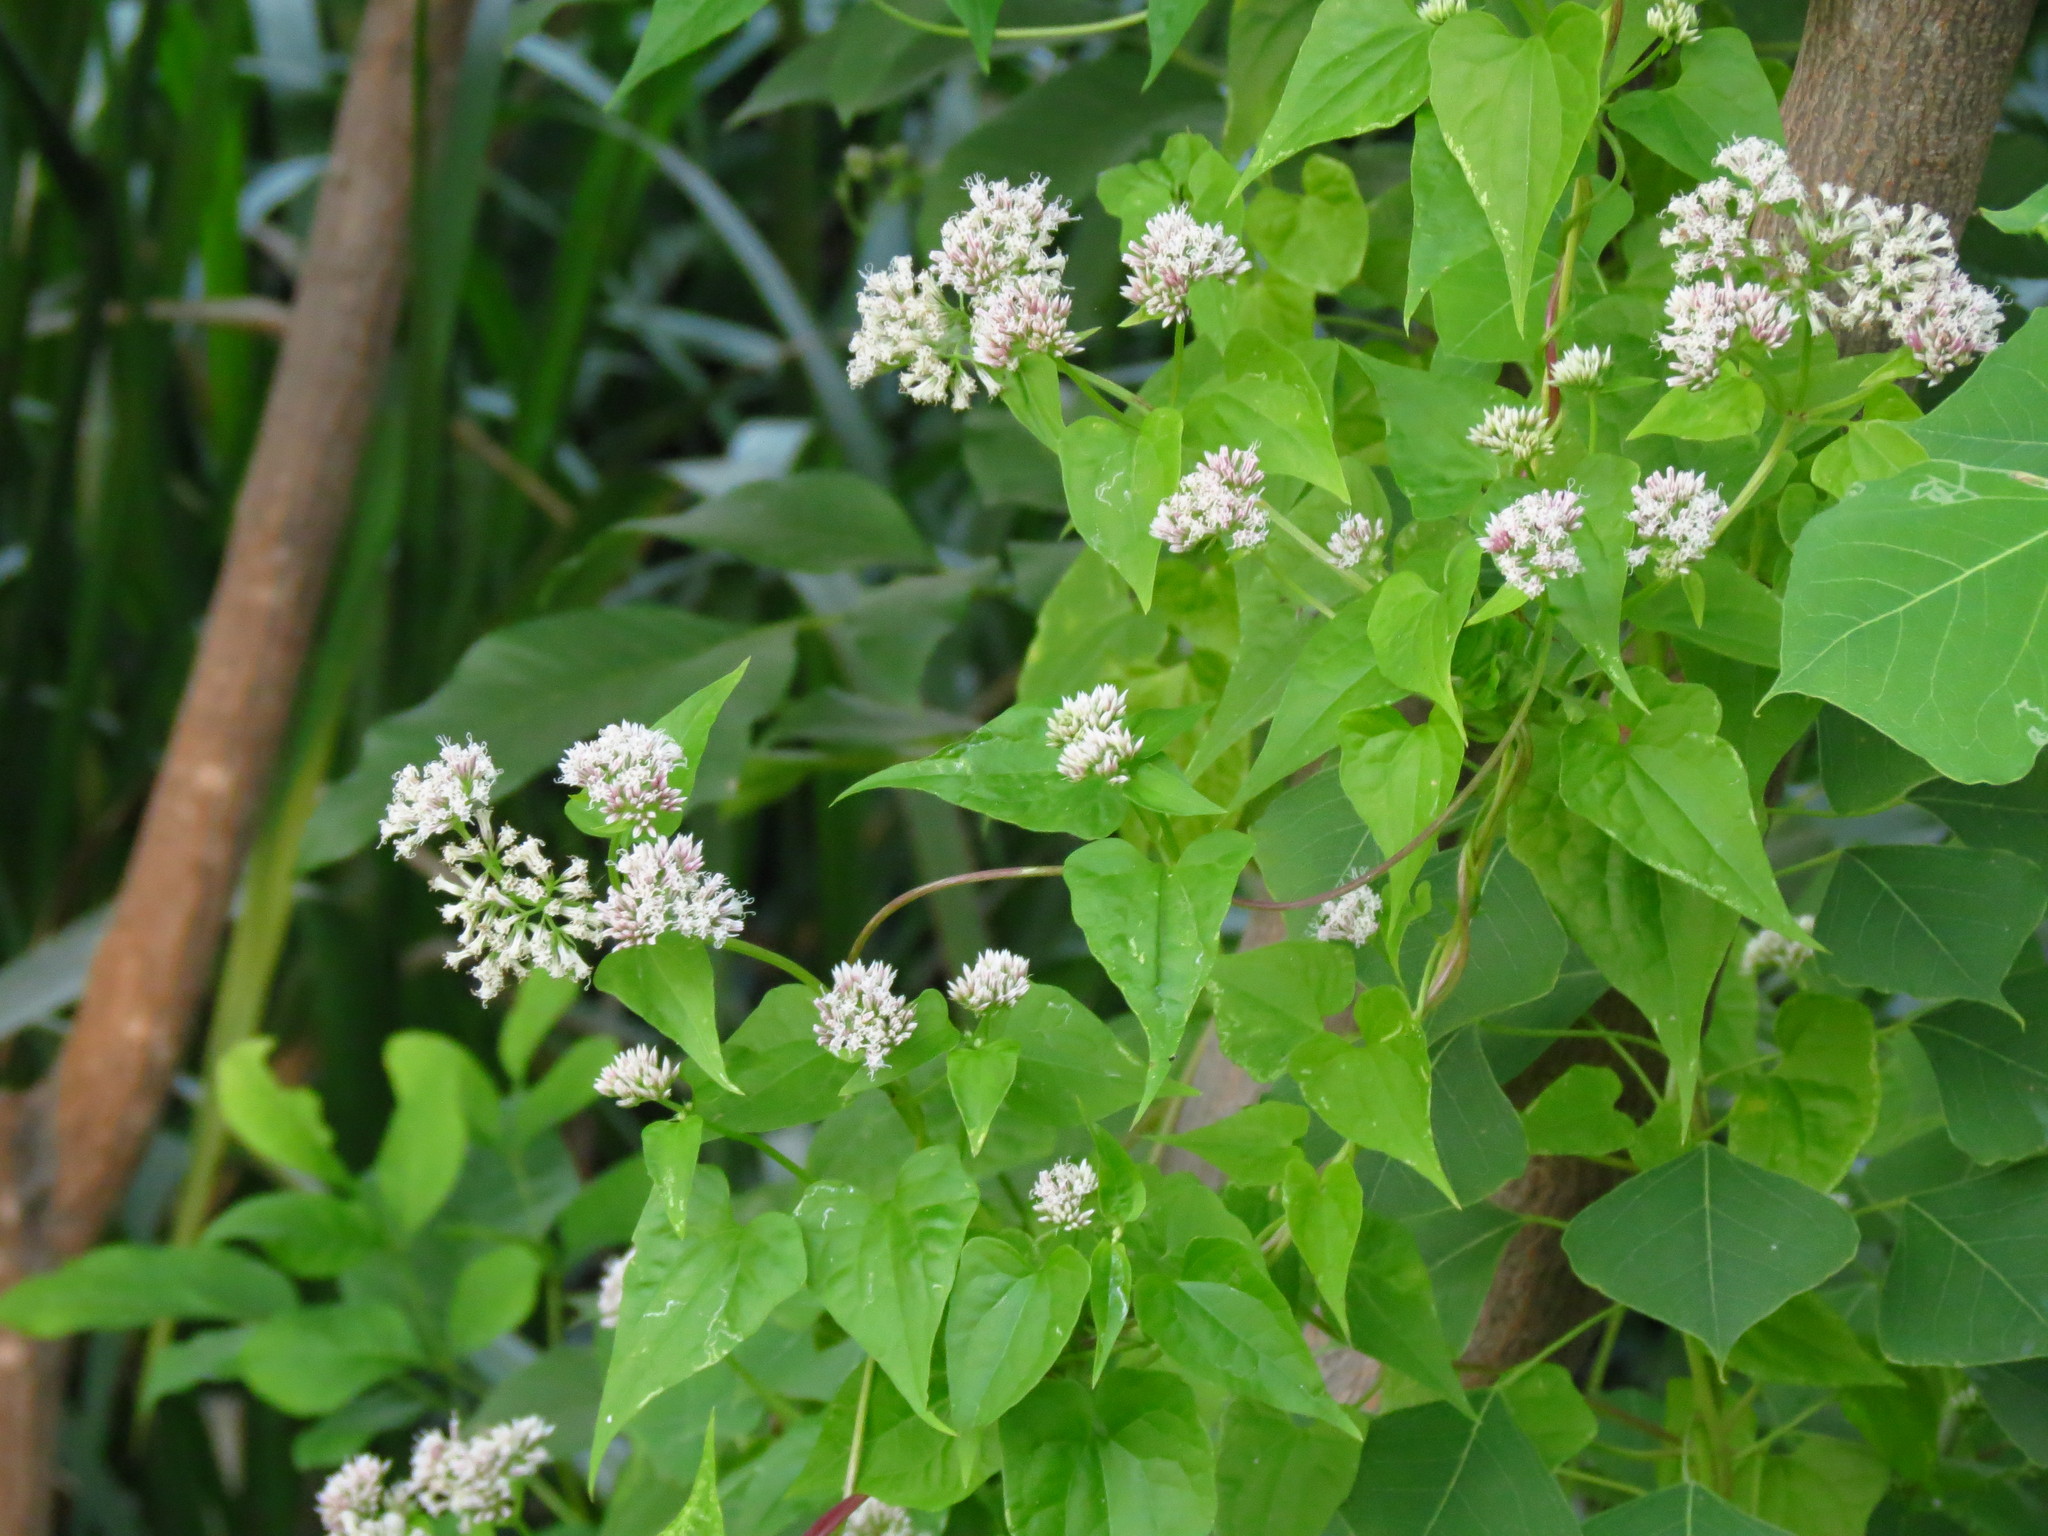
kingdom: Plantae
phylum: Tracheophyta
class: Magnoliopsida
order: Asterales
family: Asteraceae
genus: Mikania
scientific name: Mikania scandens
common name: Climbing hempvine
